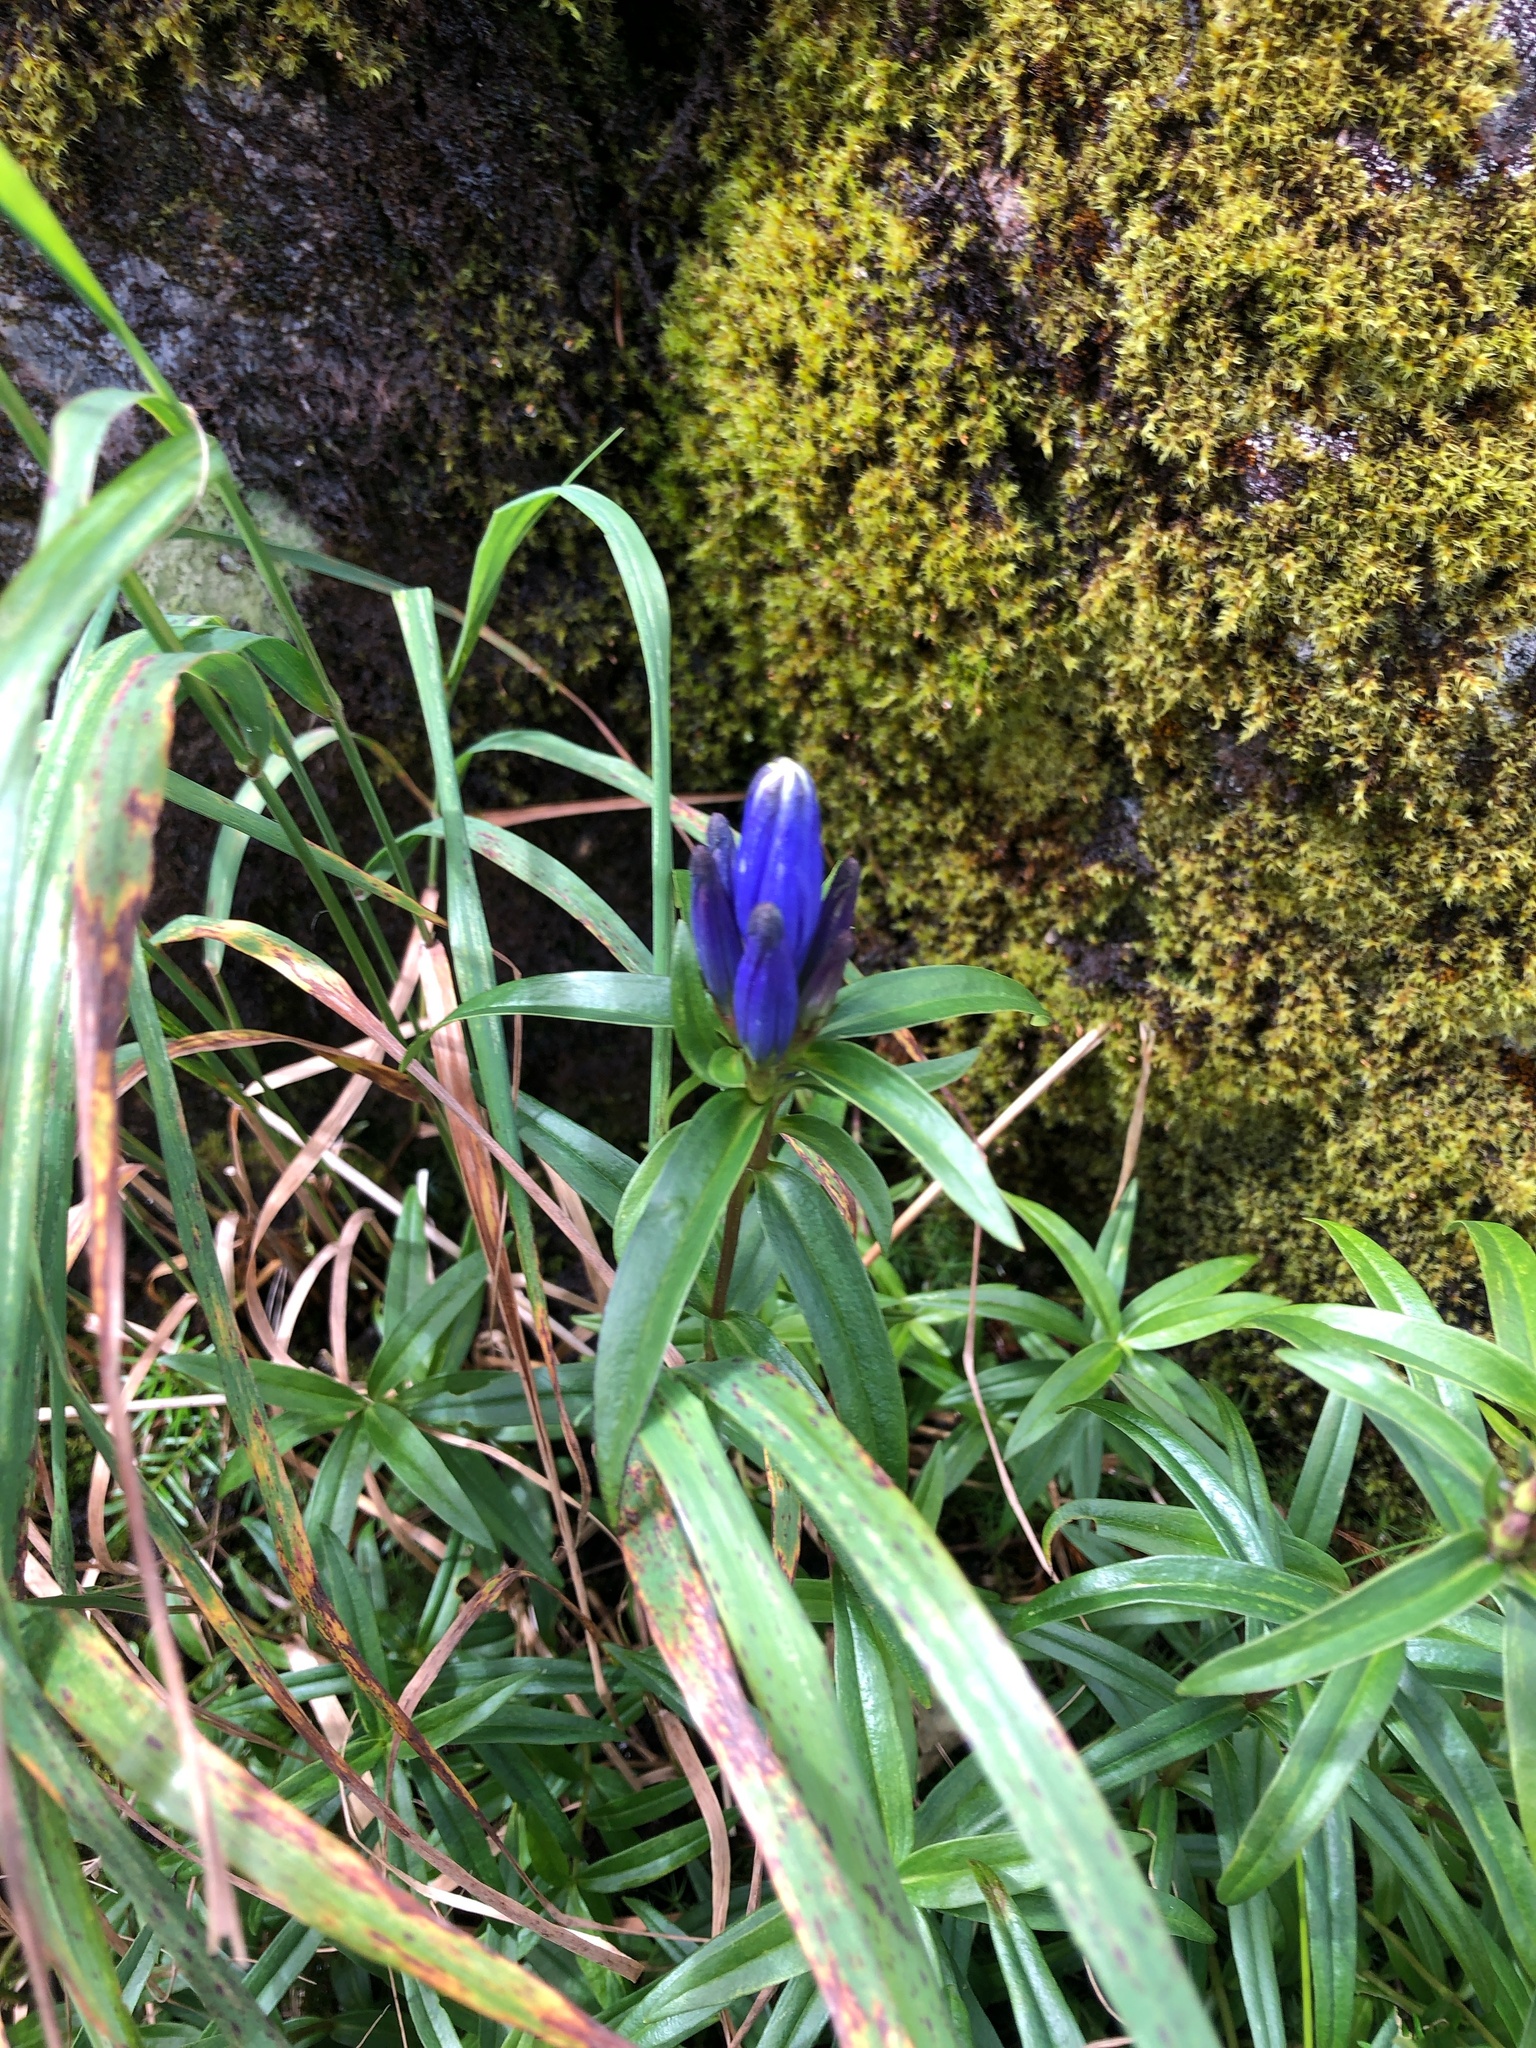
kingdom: Plantae
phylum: Tracheophyta
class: Magnoliopsida
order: Gentianales
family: Gentianaceae
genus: Gentiana
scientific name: Gentiana linearis
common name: Bastard gentian
